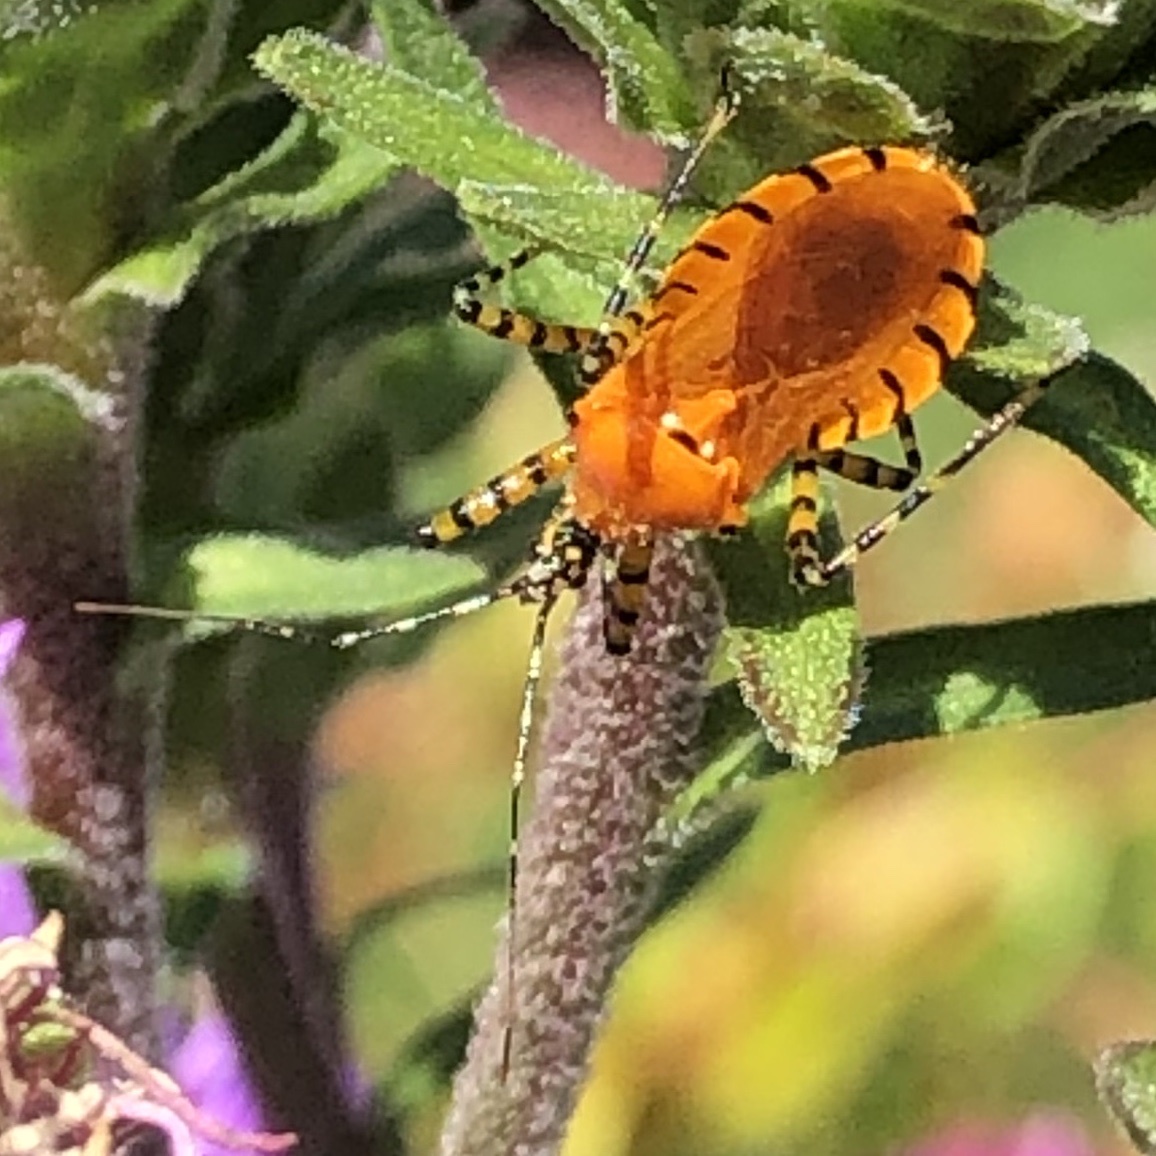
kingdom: Animalia
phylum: Arthropoda
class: Insecta
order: Hemiptera
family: Reduviidae
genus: Pselliopus
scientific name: Pselliopus barberi
